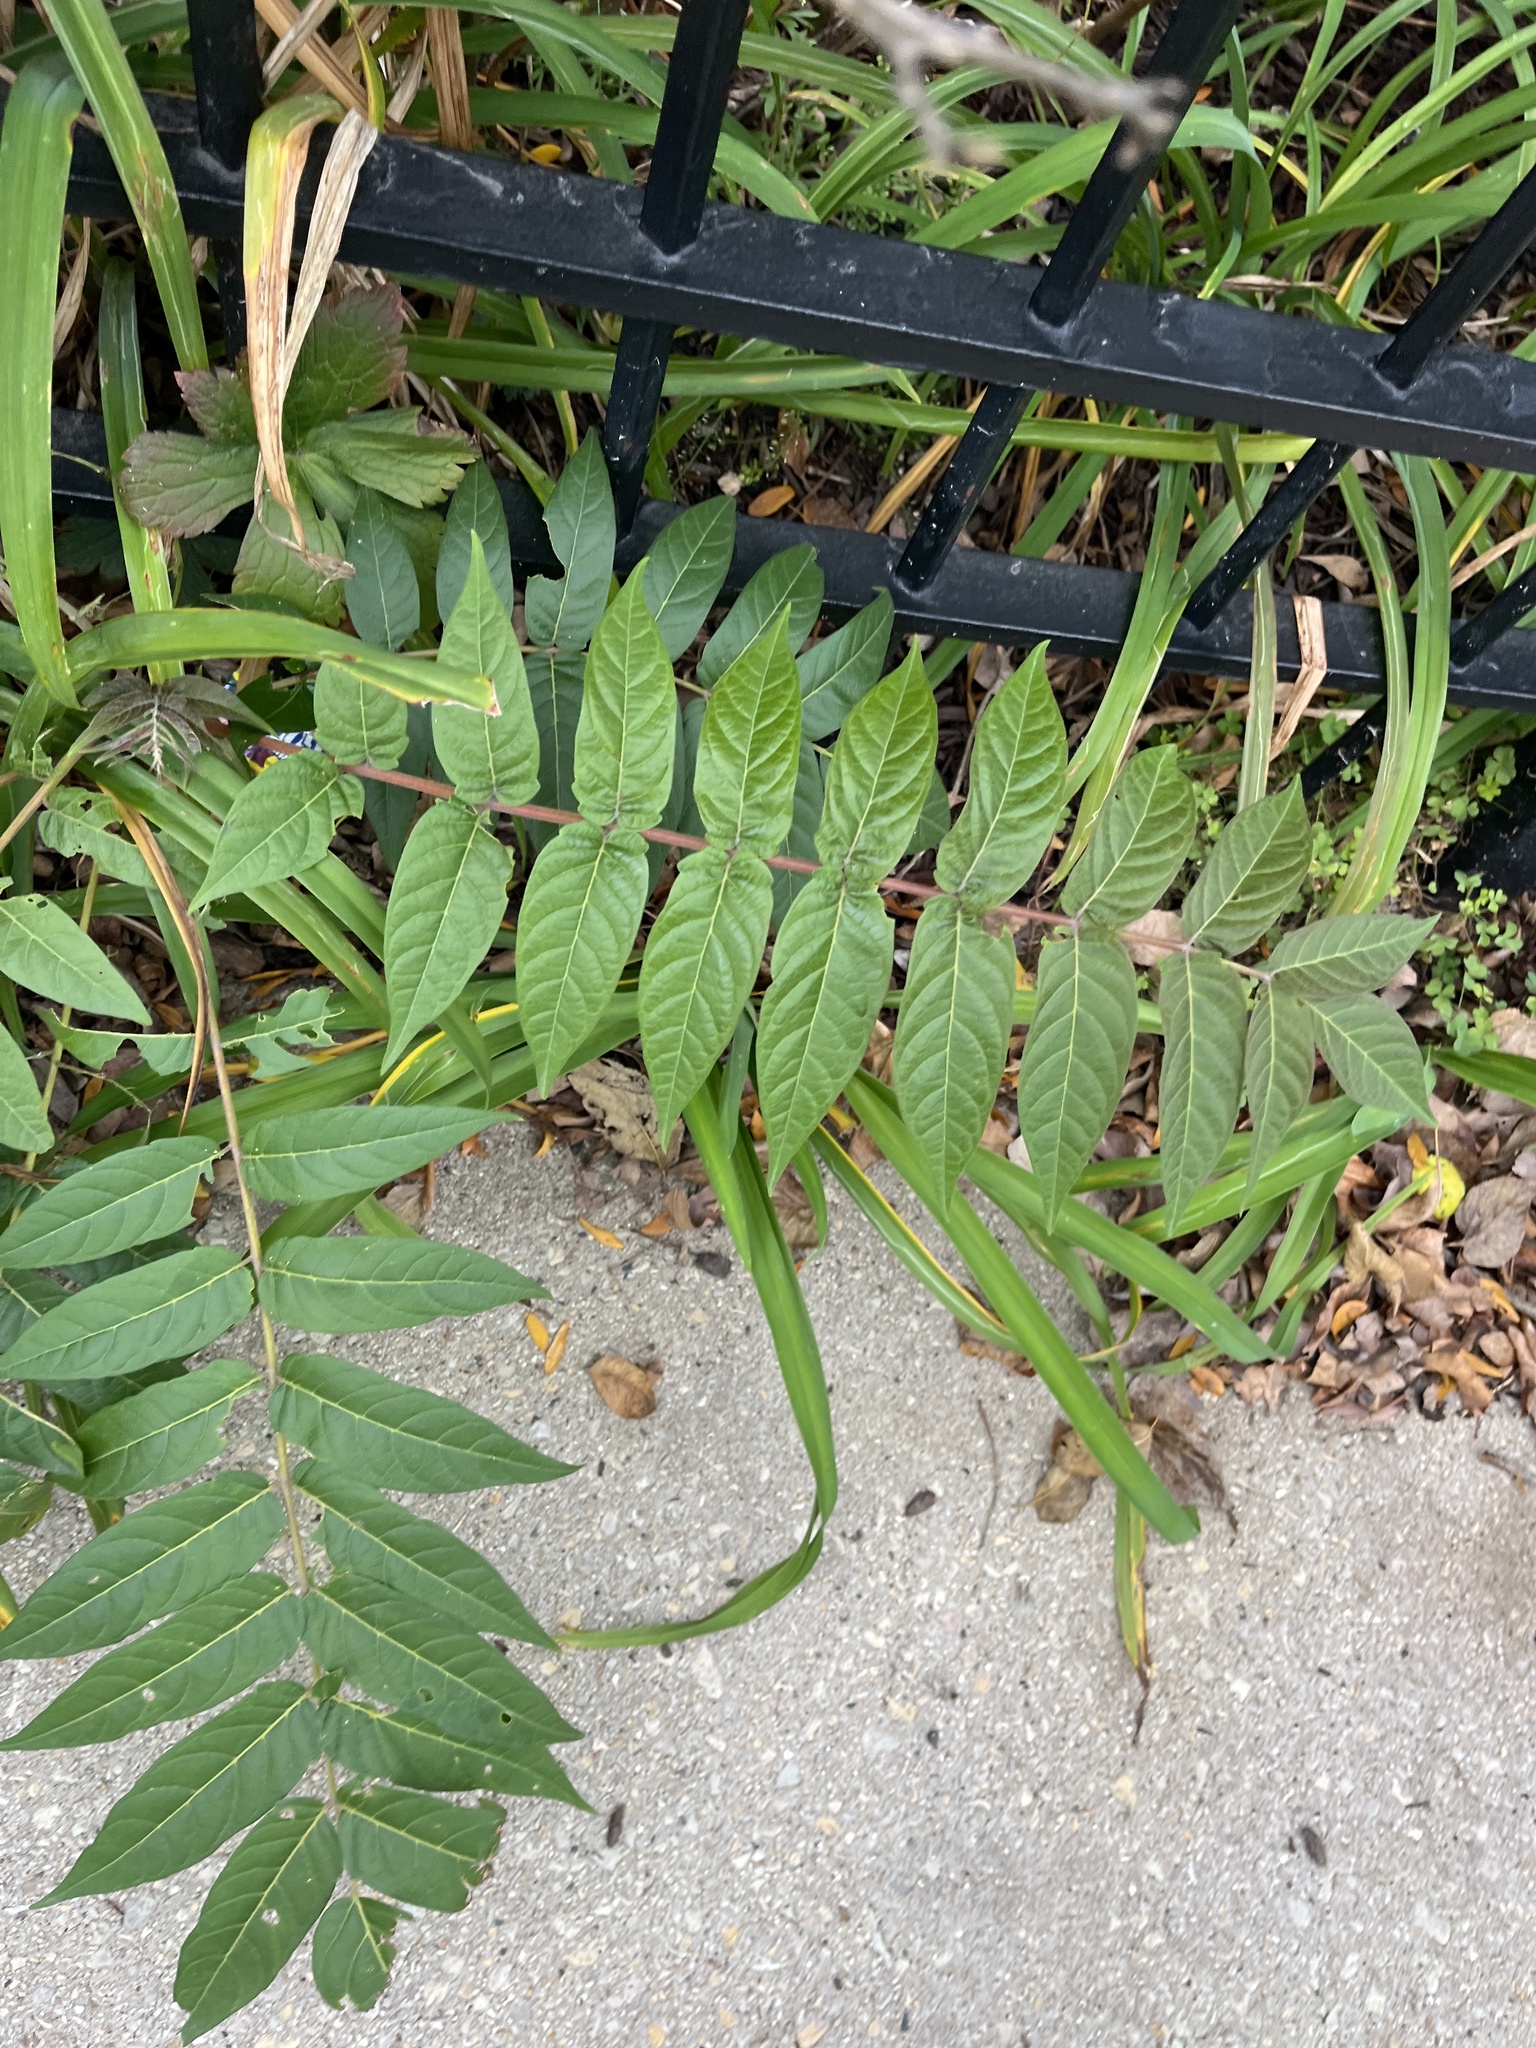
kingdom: Plantae
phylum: Tracheophyta
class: Magnoliopsida
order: Sapindales
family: Simaroubaceae
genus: Ailanthus
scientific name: Ailanthus altissima
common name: Tree-of-heaven
